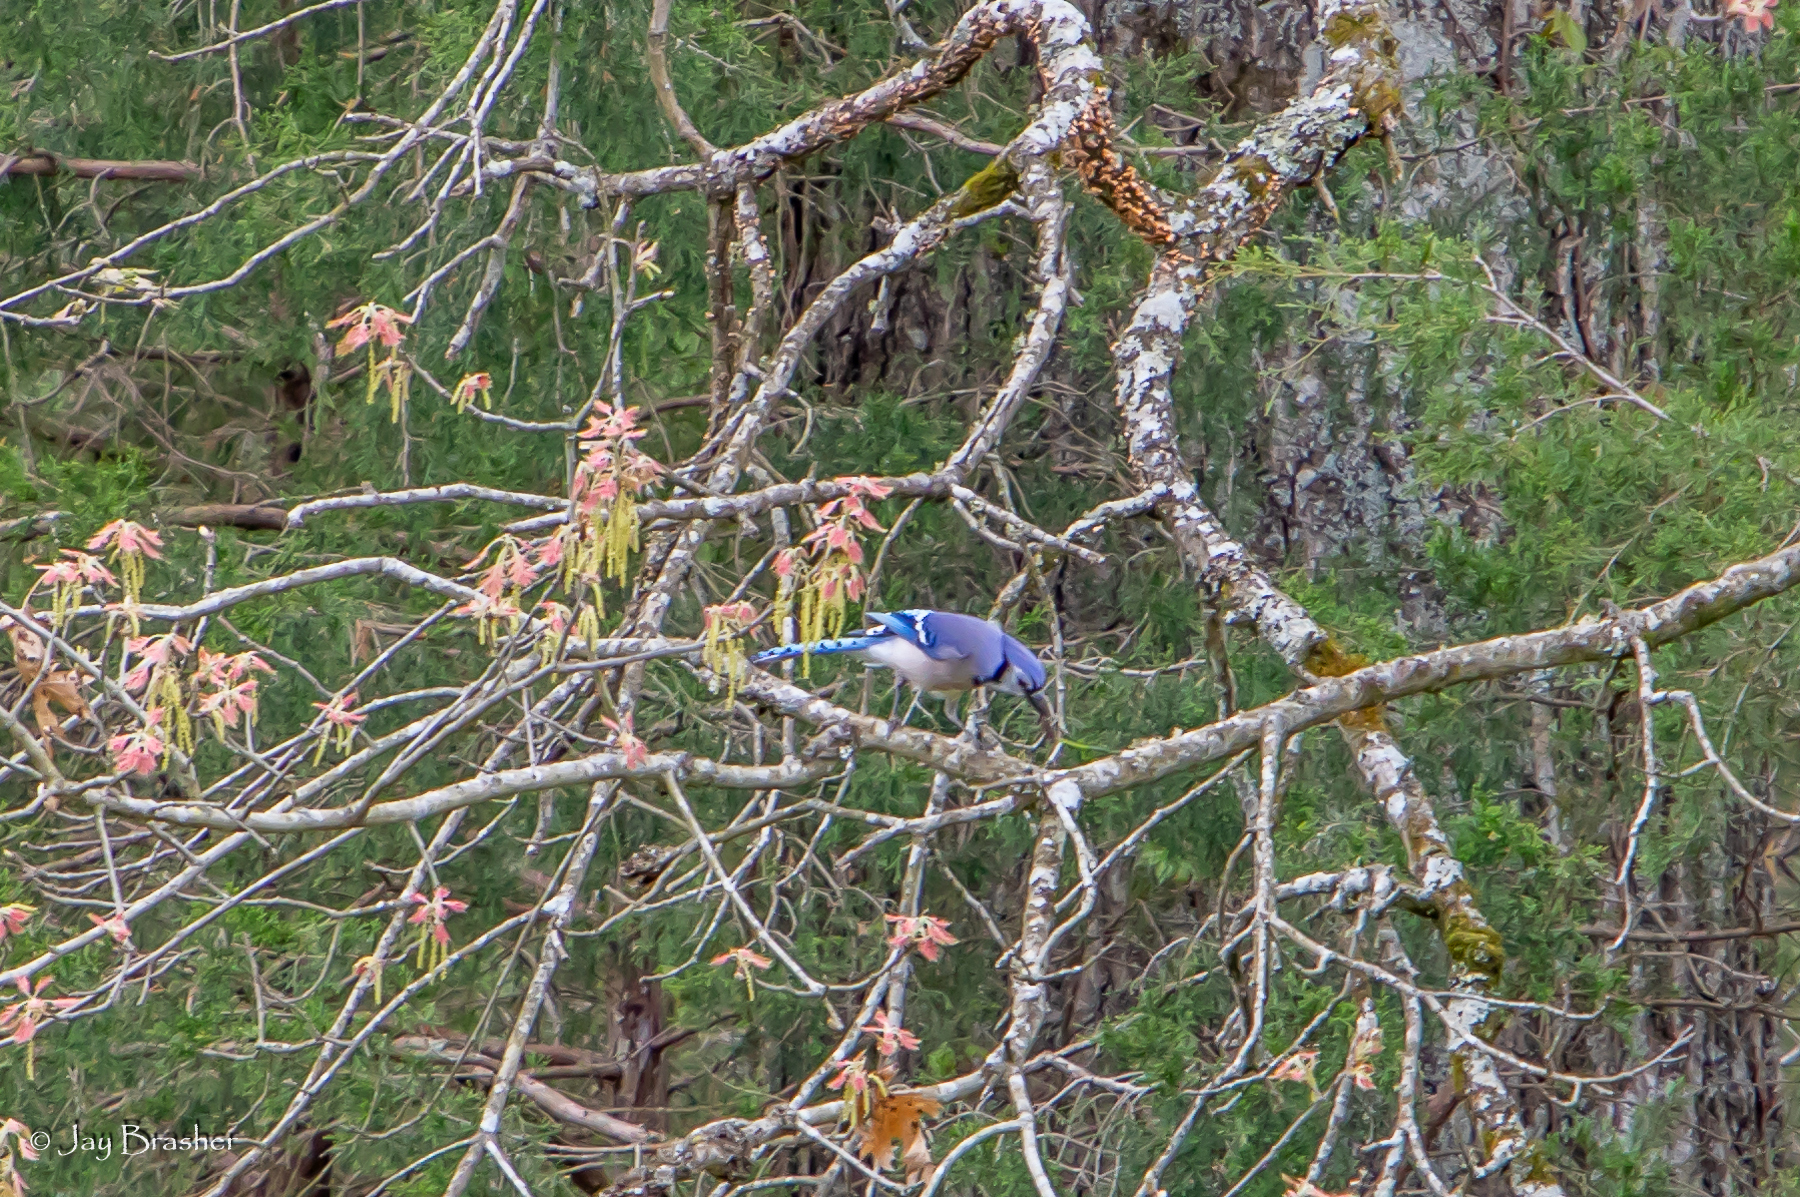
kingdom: Animalia
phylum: Chordata
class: Aves
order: Passeriformes
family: Corvidae
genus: Cyanocitta
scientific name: Cyanocitta cristata
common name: Blue jay
